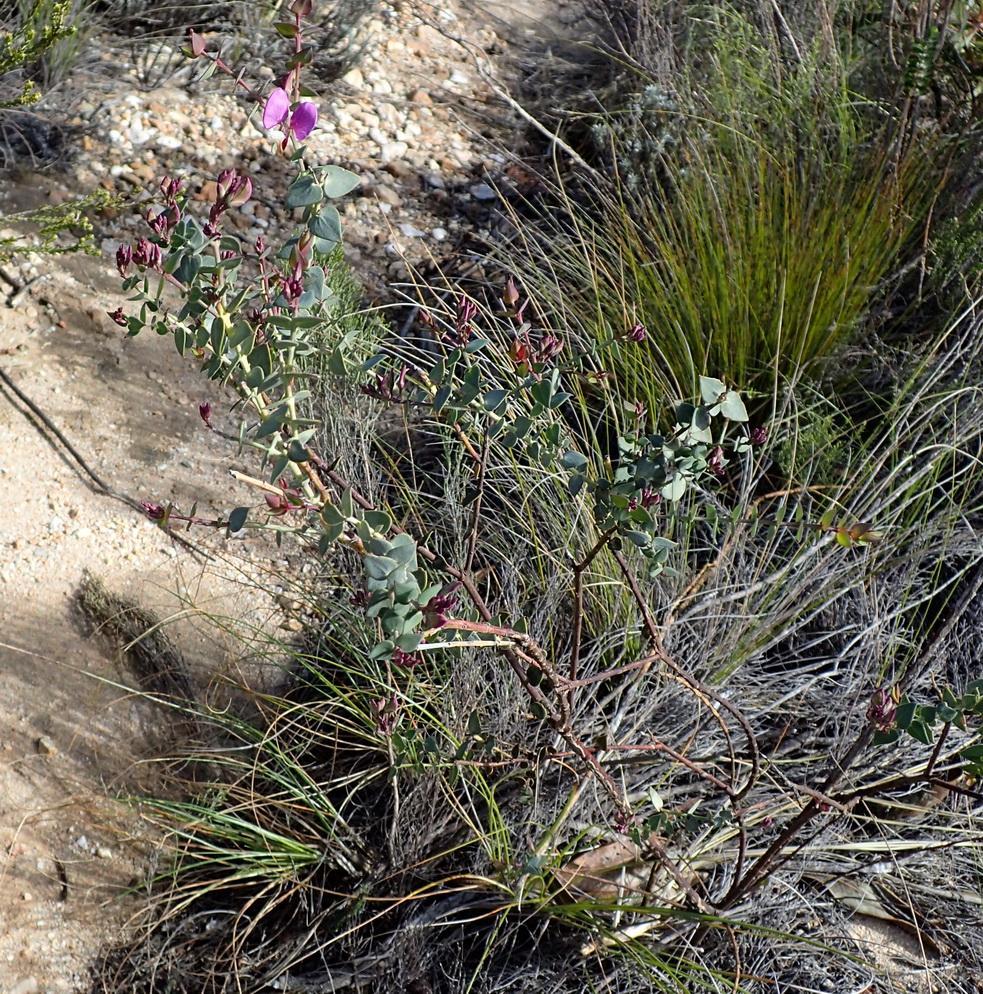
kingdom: Plantae
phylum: Tracheophyta
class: Magnoliopsida
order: Fabales
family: Polygalaceae
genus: Polygala
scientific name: Polygala fruticosa
